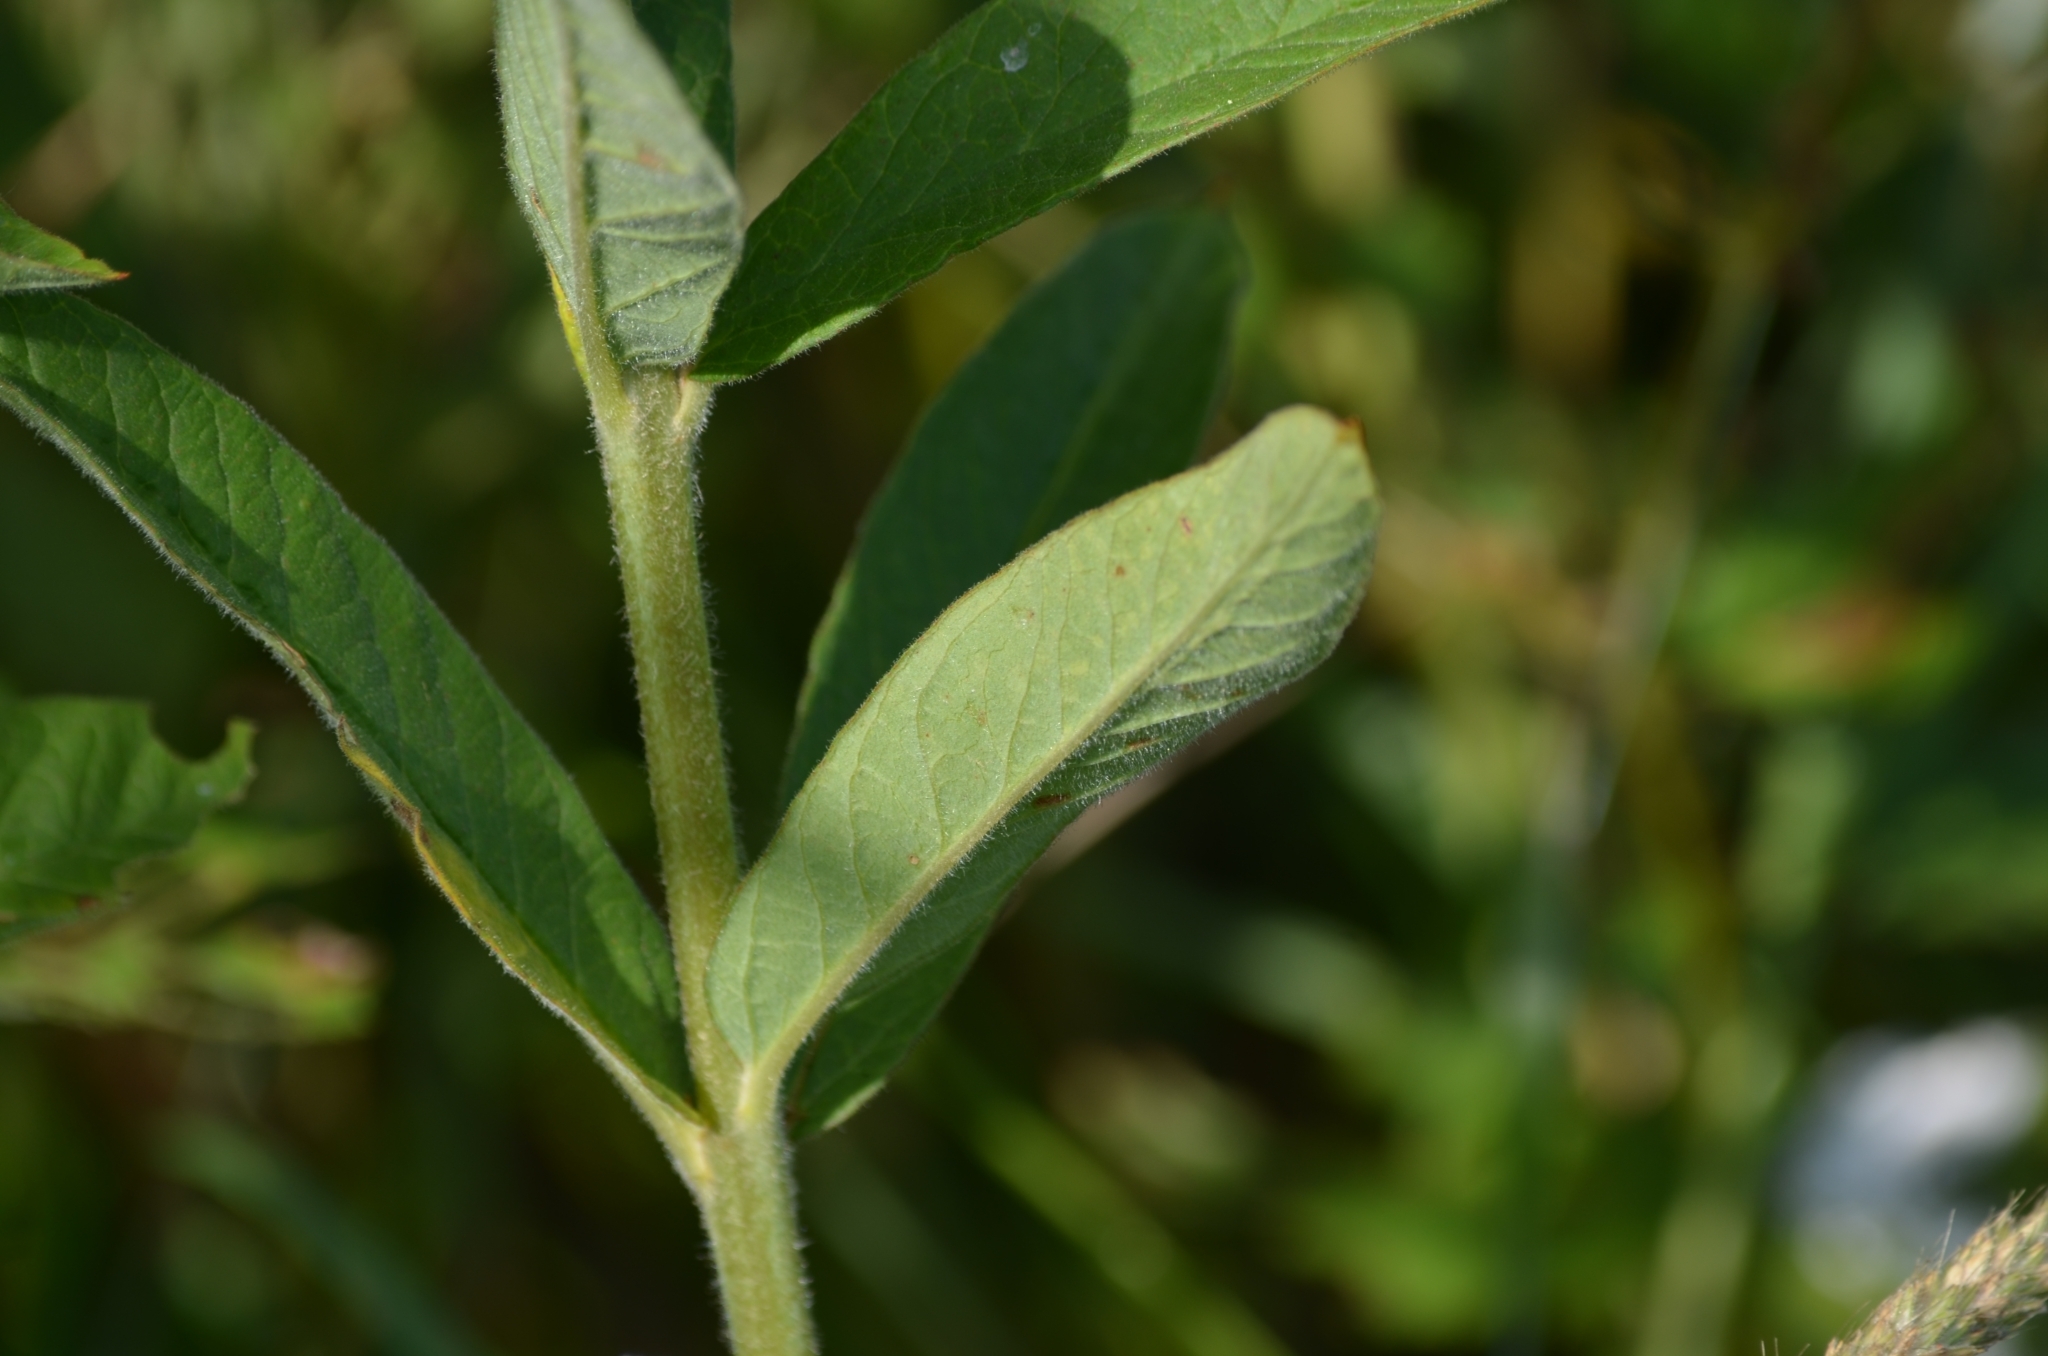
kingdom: Plantae
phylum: Tracheophyta
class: Magnoliopsida
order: Ericales
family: Primulaceae
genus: Lysimachia
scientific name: Lysimachia vulgaris
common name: Yellow loosestrife
